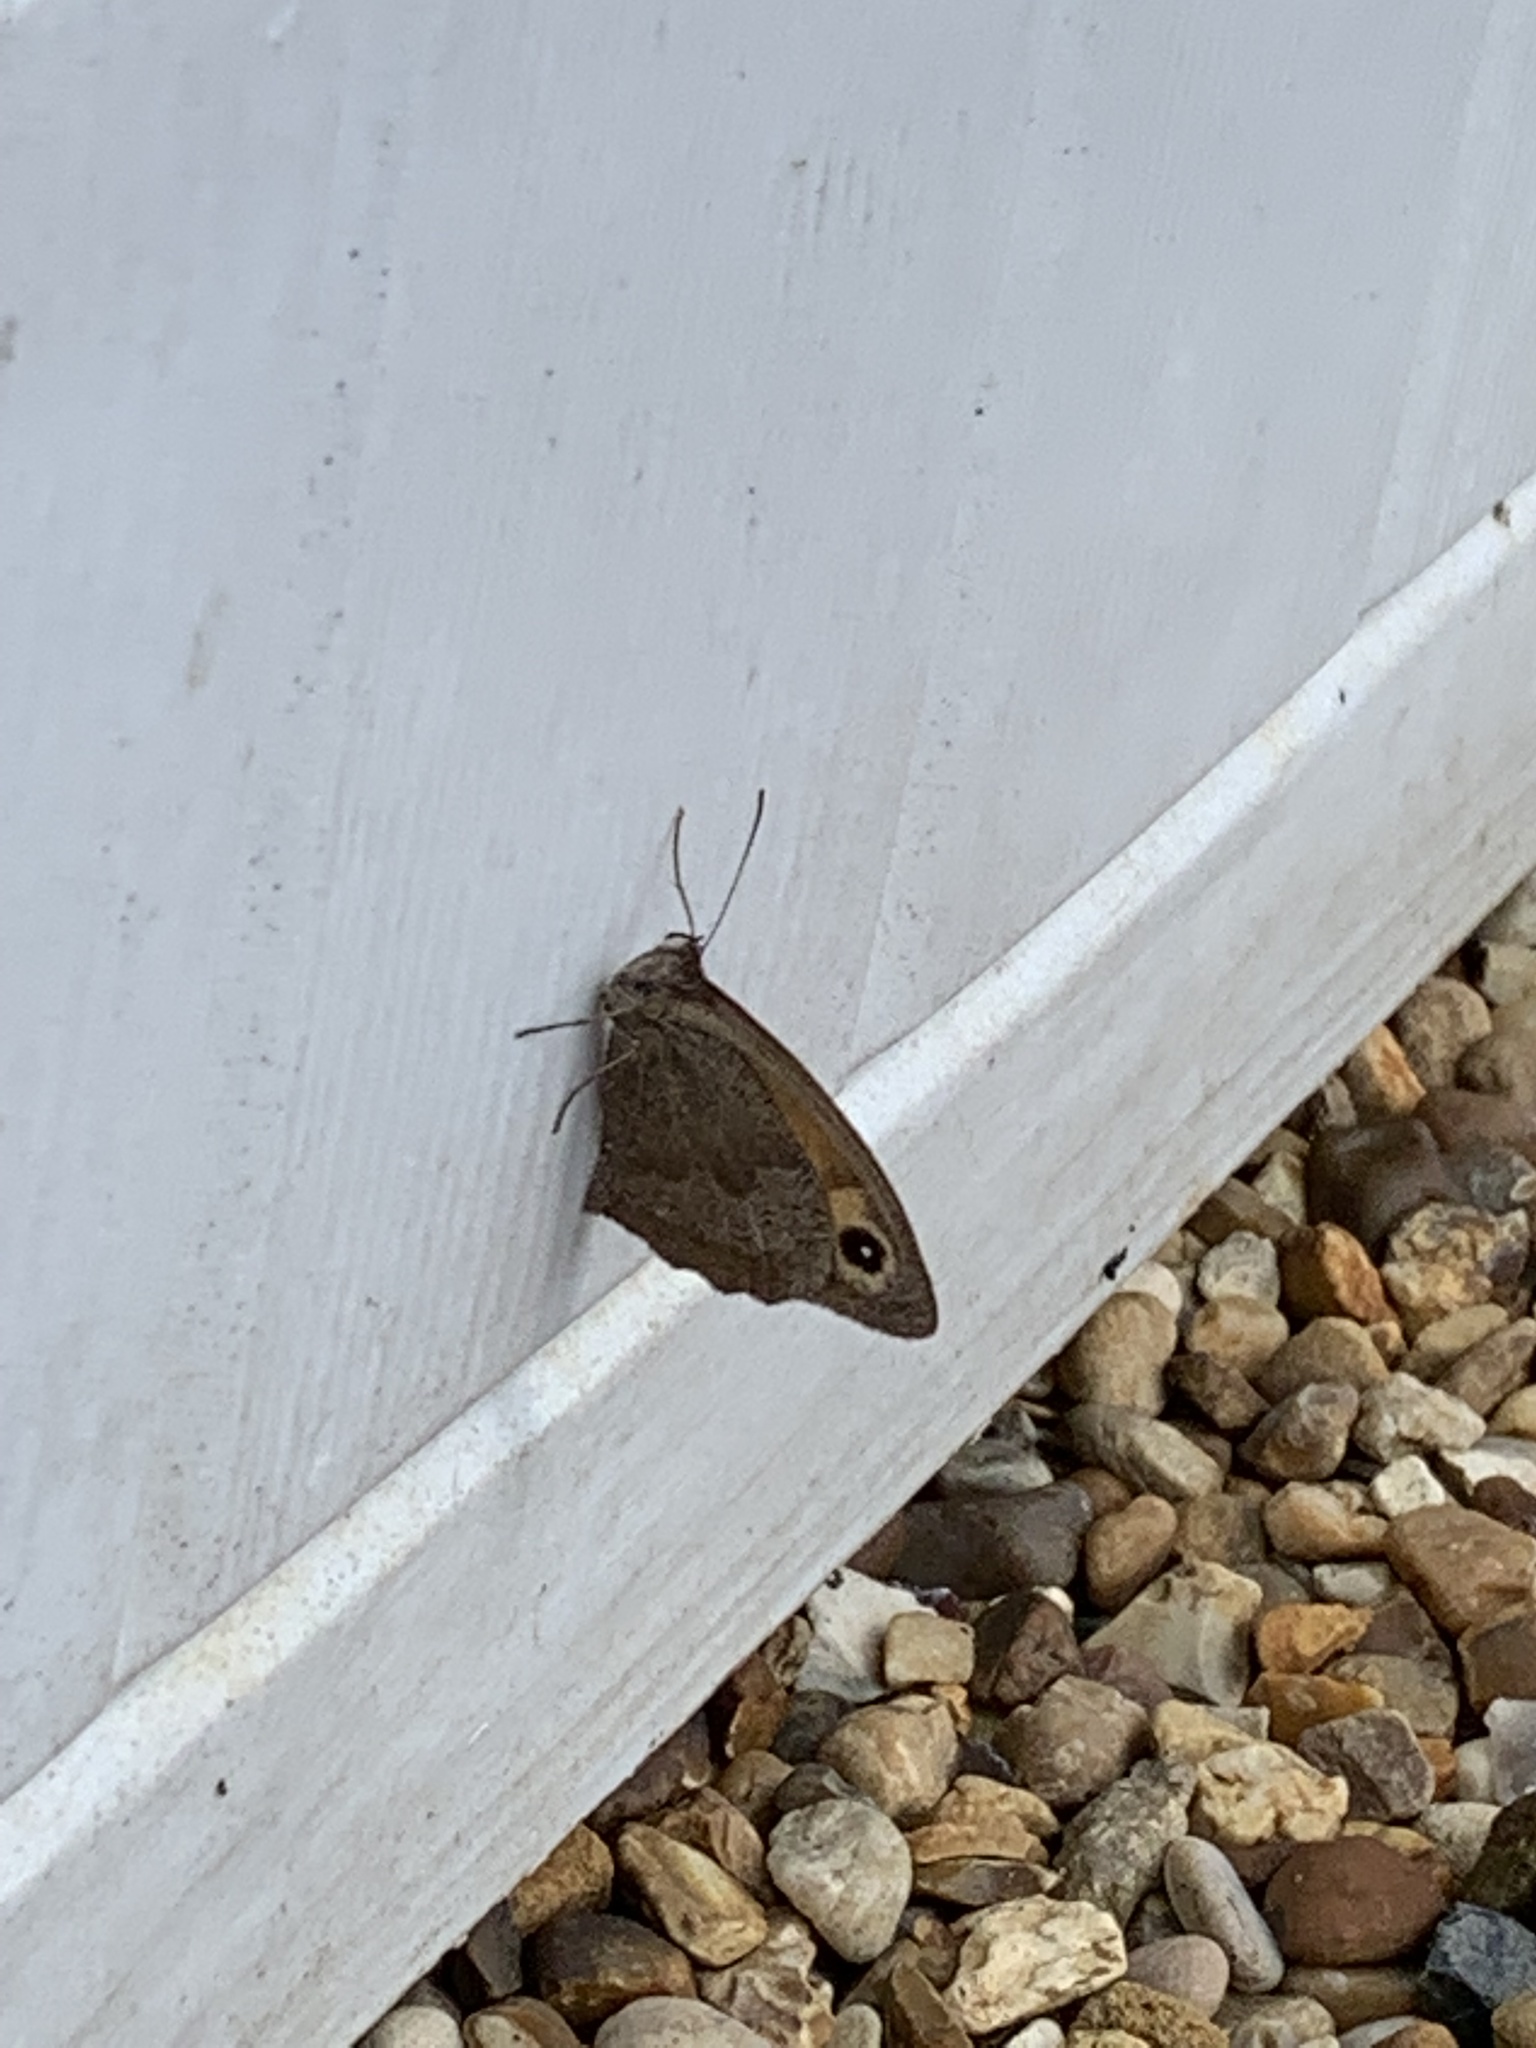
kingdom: Animalia
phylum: Arthropoda
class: Insecta
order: Lepidoptera
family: Nymphalidae
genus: Maniola
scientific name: Maniola jurtina
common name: Meadow brown
